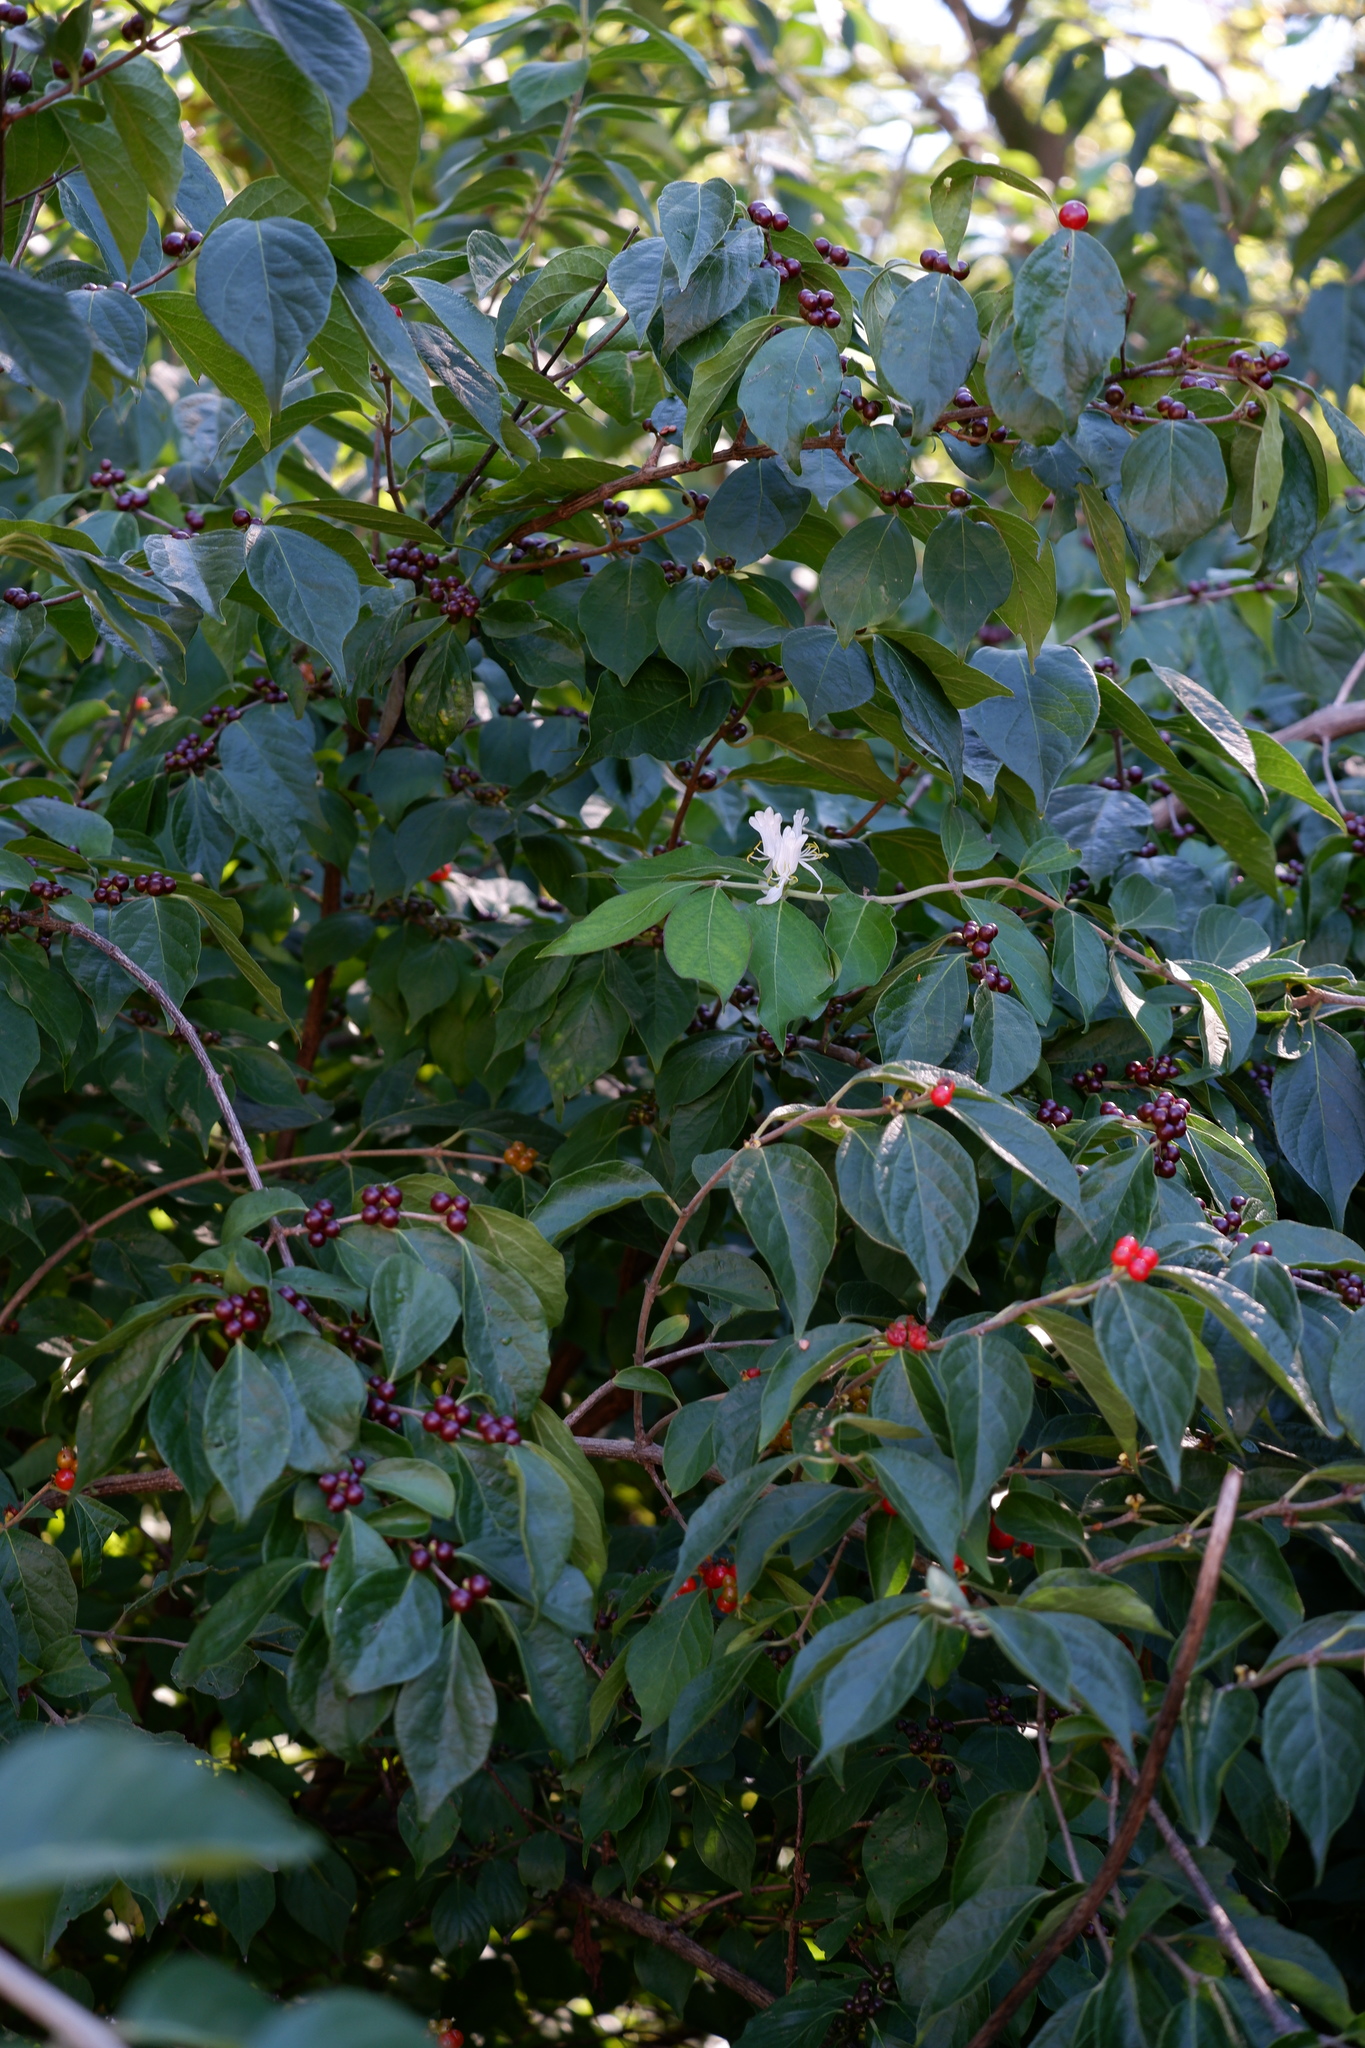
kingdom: Plantae
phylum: Tracheophyta
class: Magnoliopsida
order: Dipsacales
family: Caprifoliaceae
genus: Lonicera
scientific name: Lonicera maackii
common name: Amur honeysuckle
